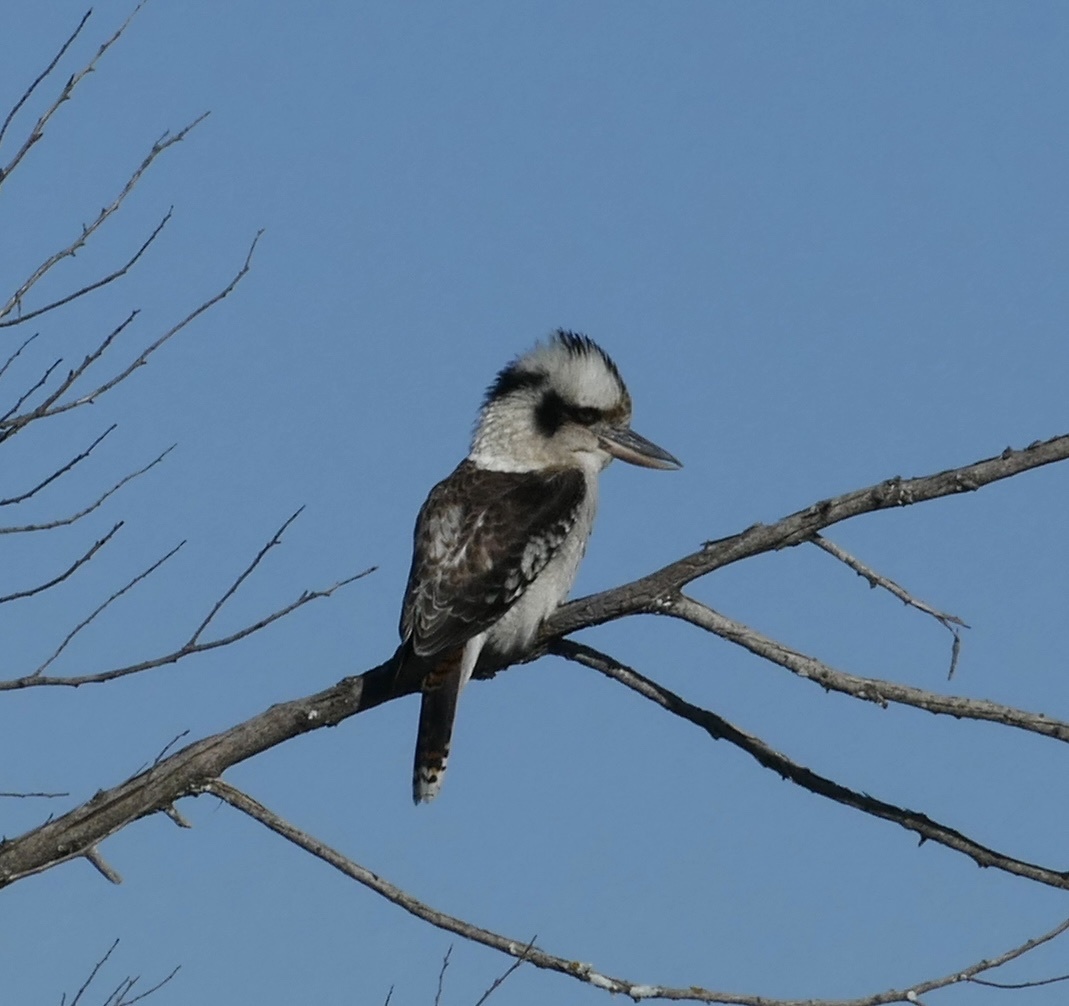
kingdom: Animalia
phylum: Chordata
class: Aves
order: Coraciiformes
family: Alcedinidae
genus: Dacelo
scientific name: Dacelo novaeguineae
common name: Laughing kookaburra
